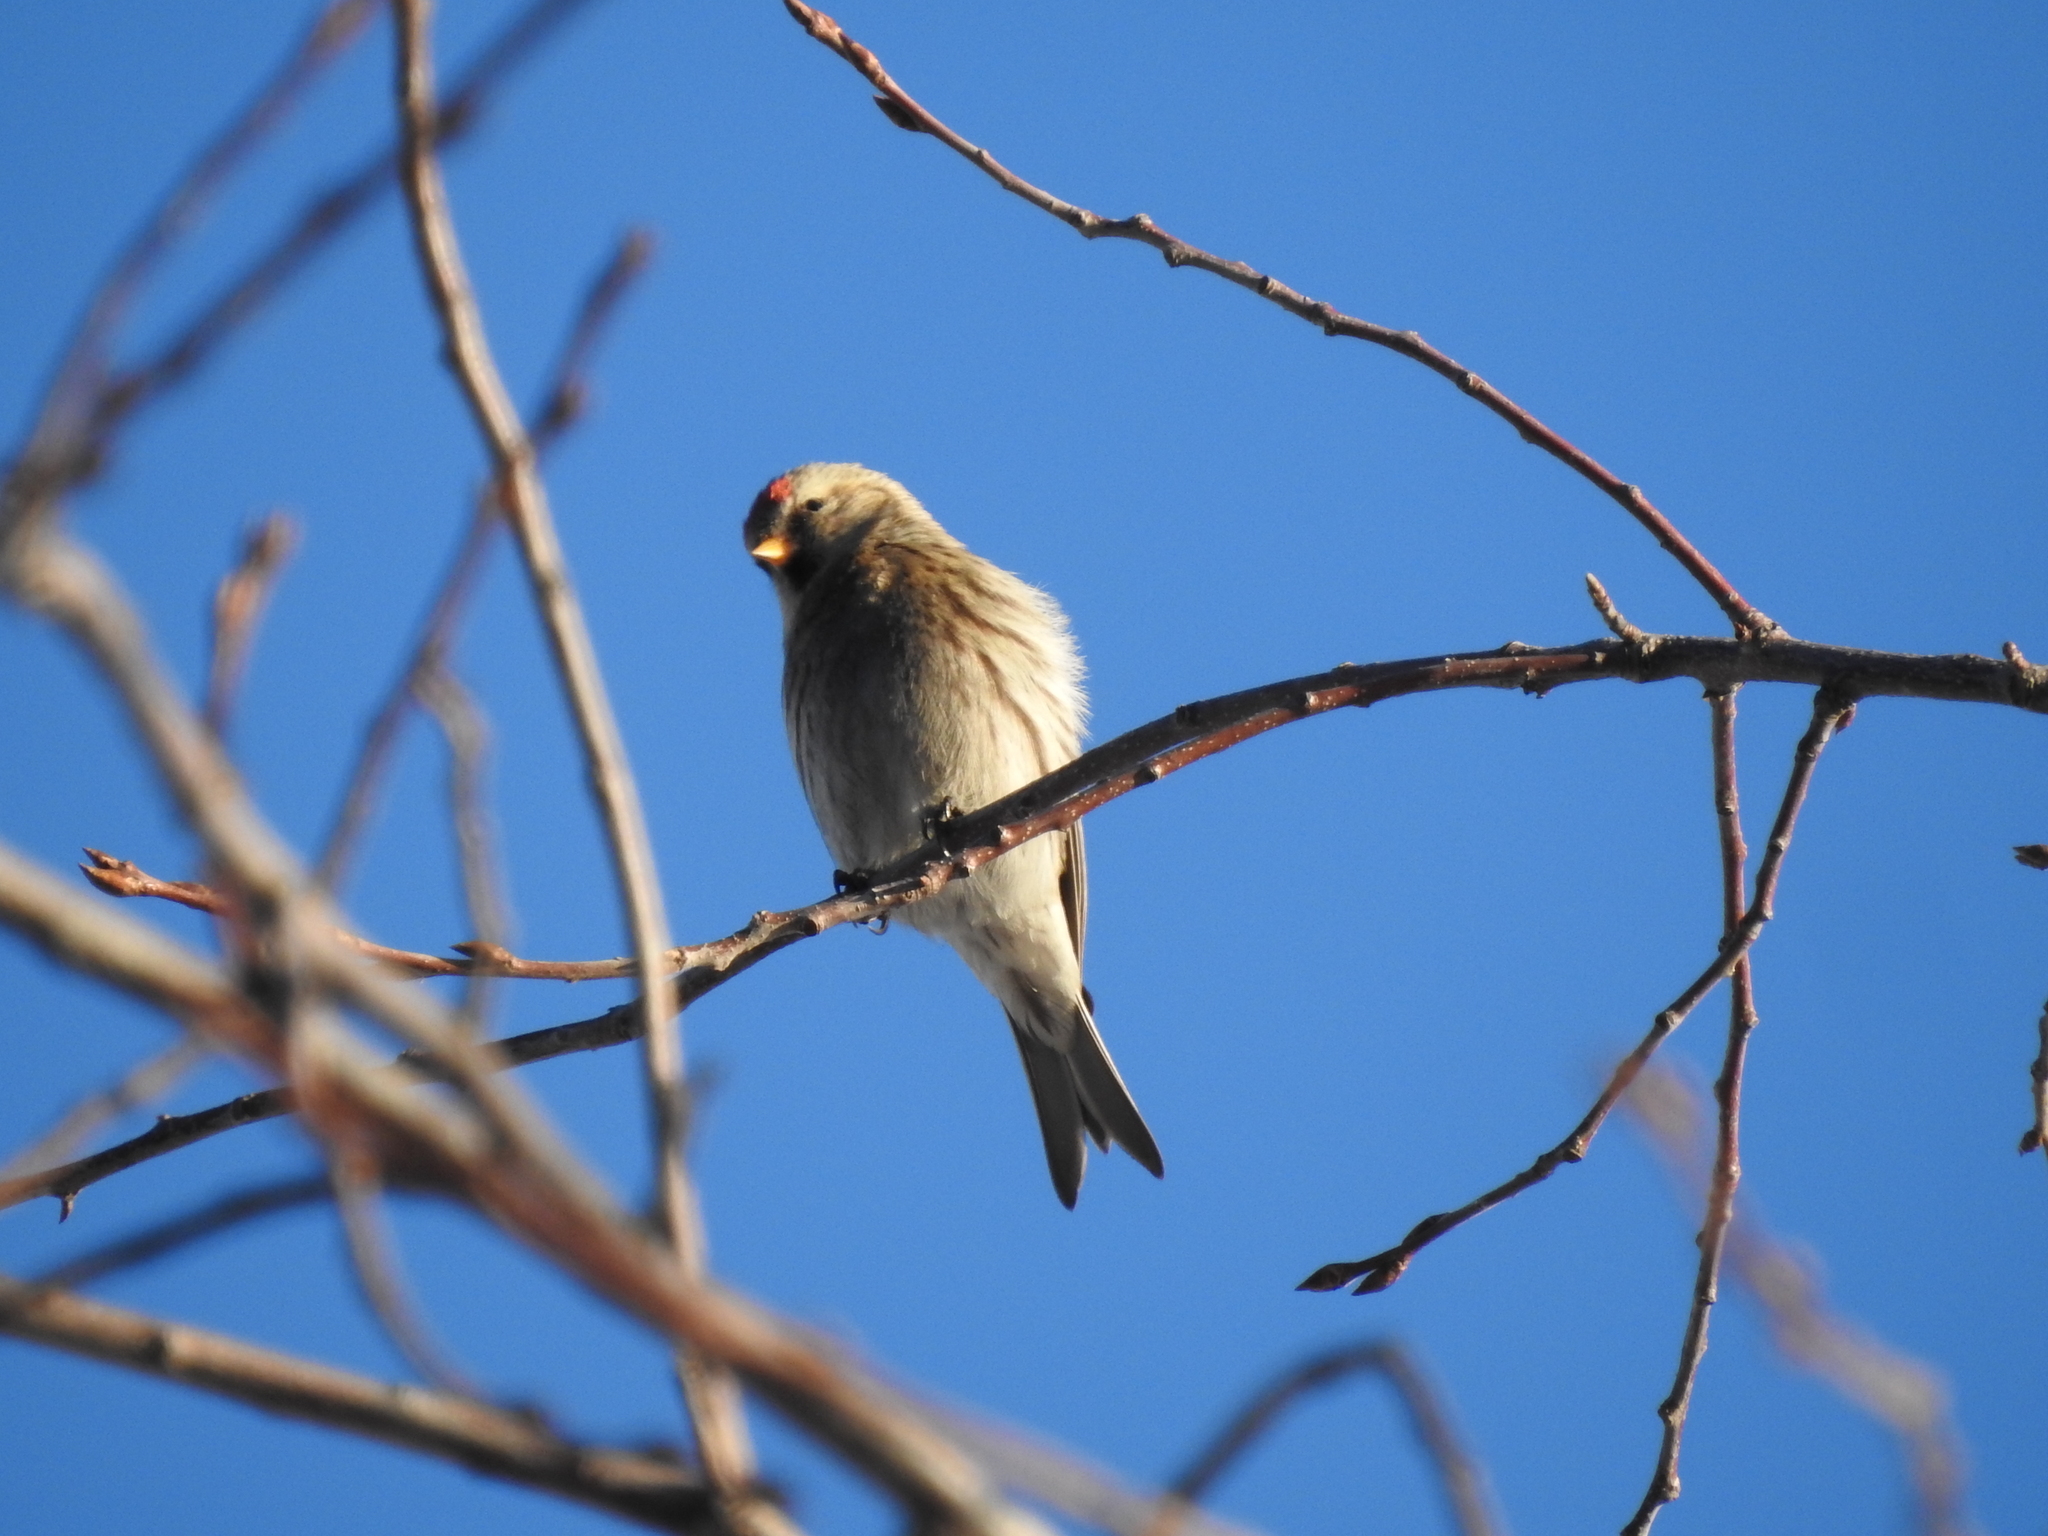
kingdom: Animalia
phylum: Chordata
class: Aves
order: Passeriformes
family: Fringillidae
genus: Acanthis
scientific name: Acanthis flammea
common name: Common redpoll
